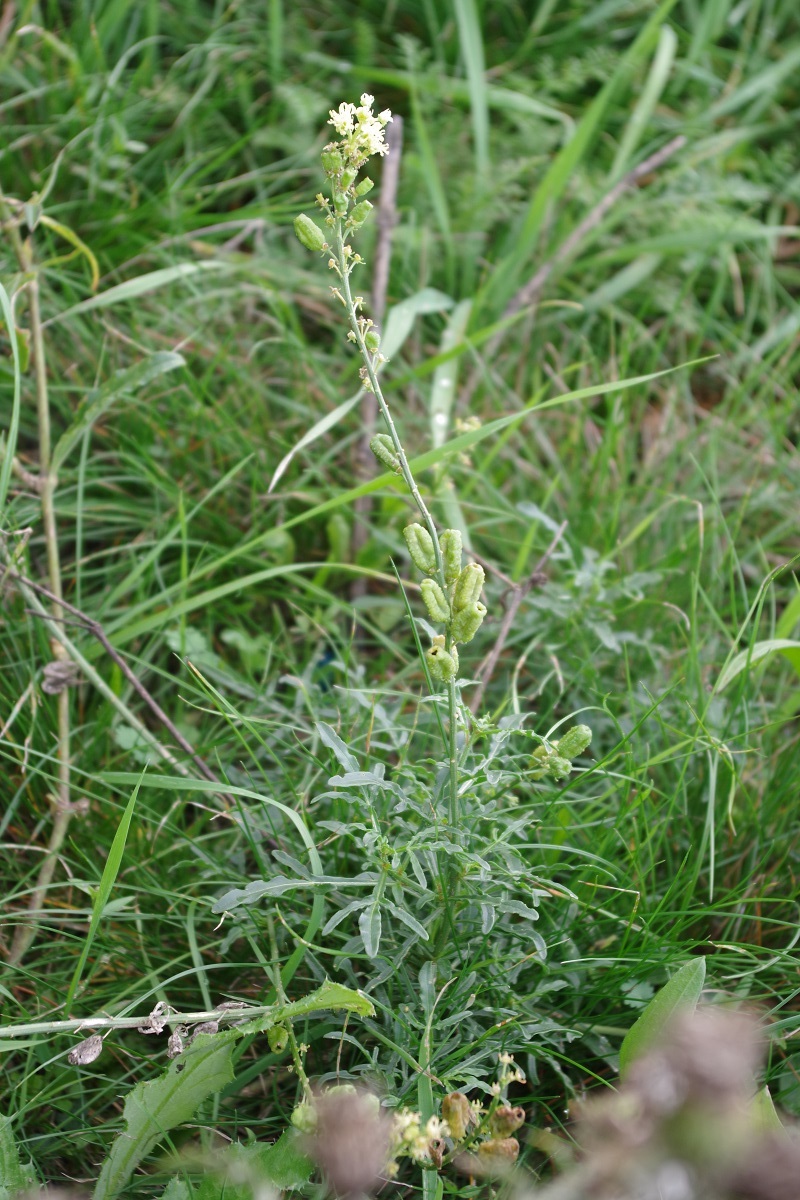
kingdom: Plantae
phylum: Tracheophyta
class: Magnoliopsida
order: Brassicales
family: Resedaceae
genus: Reseda
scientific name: Reseda lutea
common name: Wild mignonette
